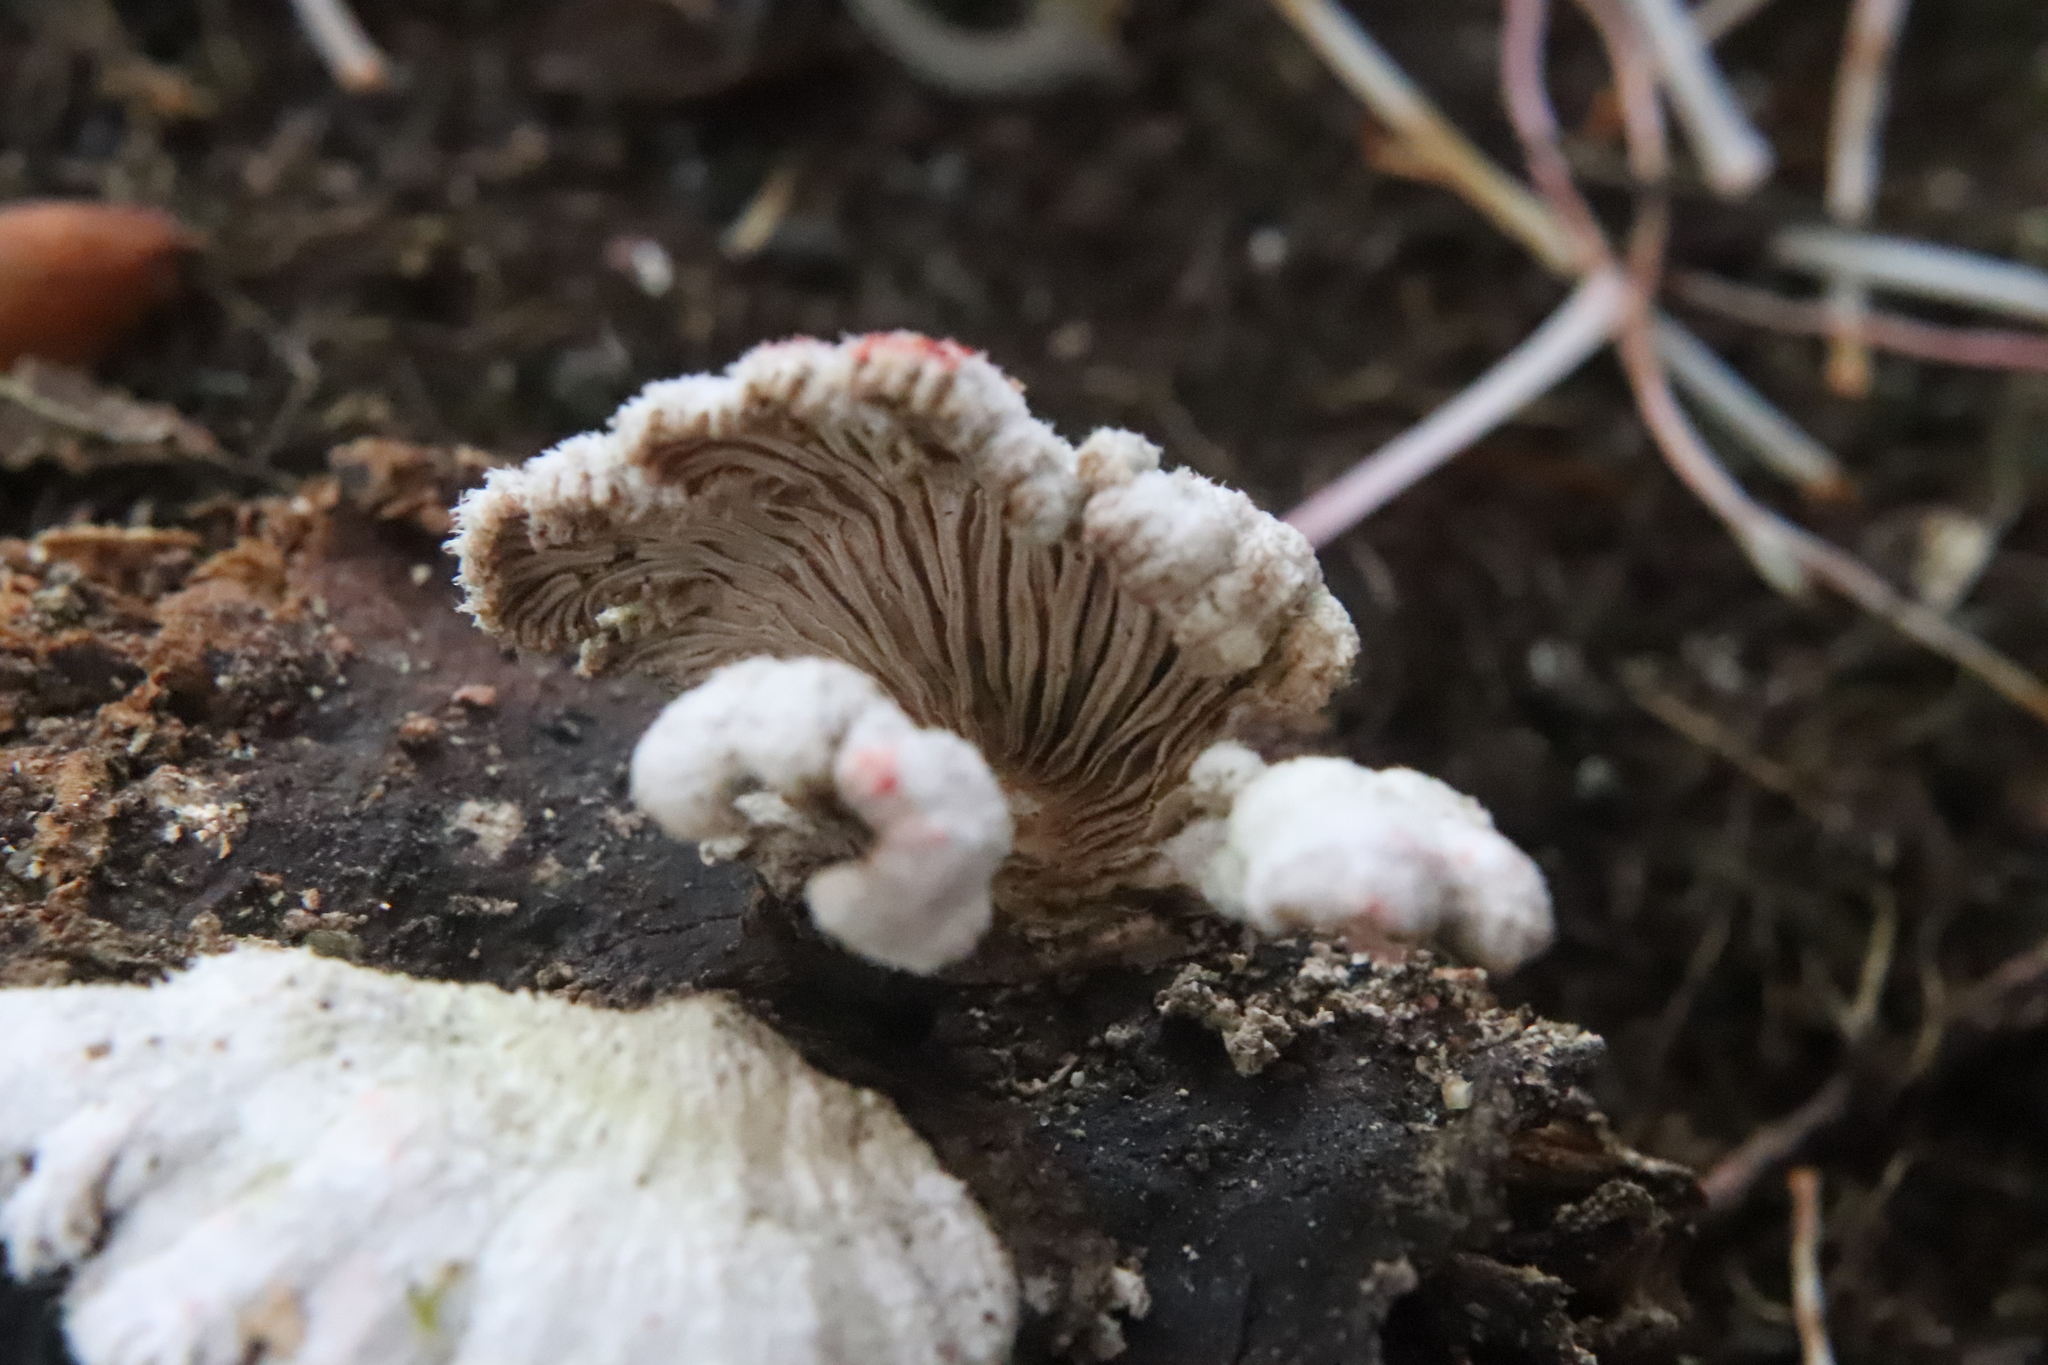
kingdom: Fungi
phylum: Basidiomycota
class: Agaricomycetes
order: Agaricales
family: Schizophyllaceae
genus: Schizophyllum
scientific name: Schizophyllum commune
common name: Common porecrust
